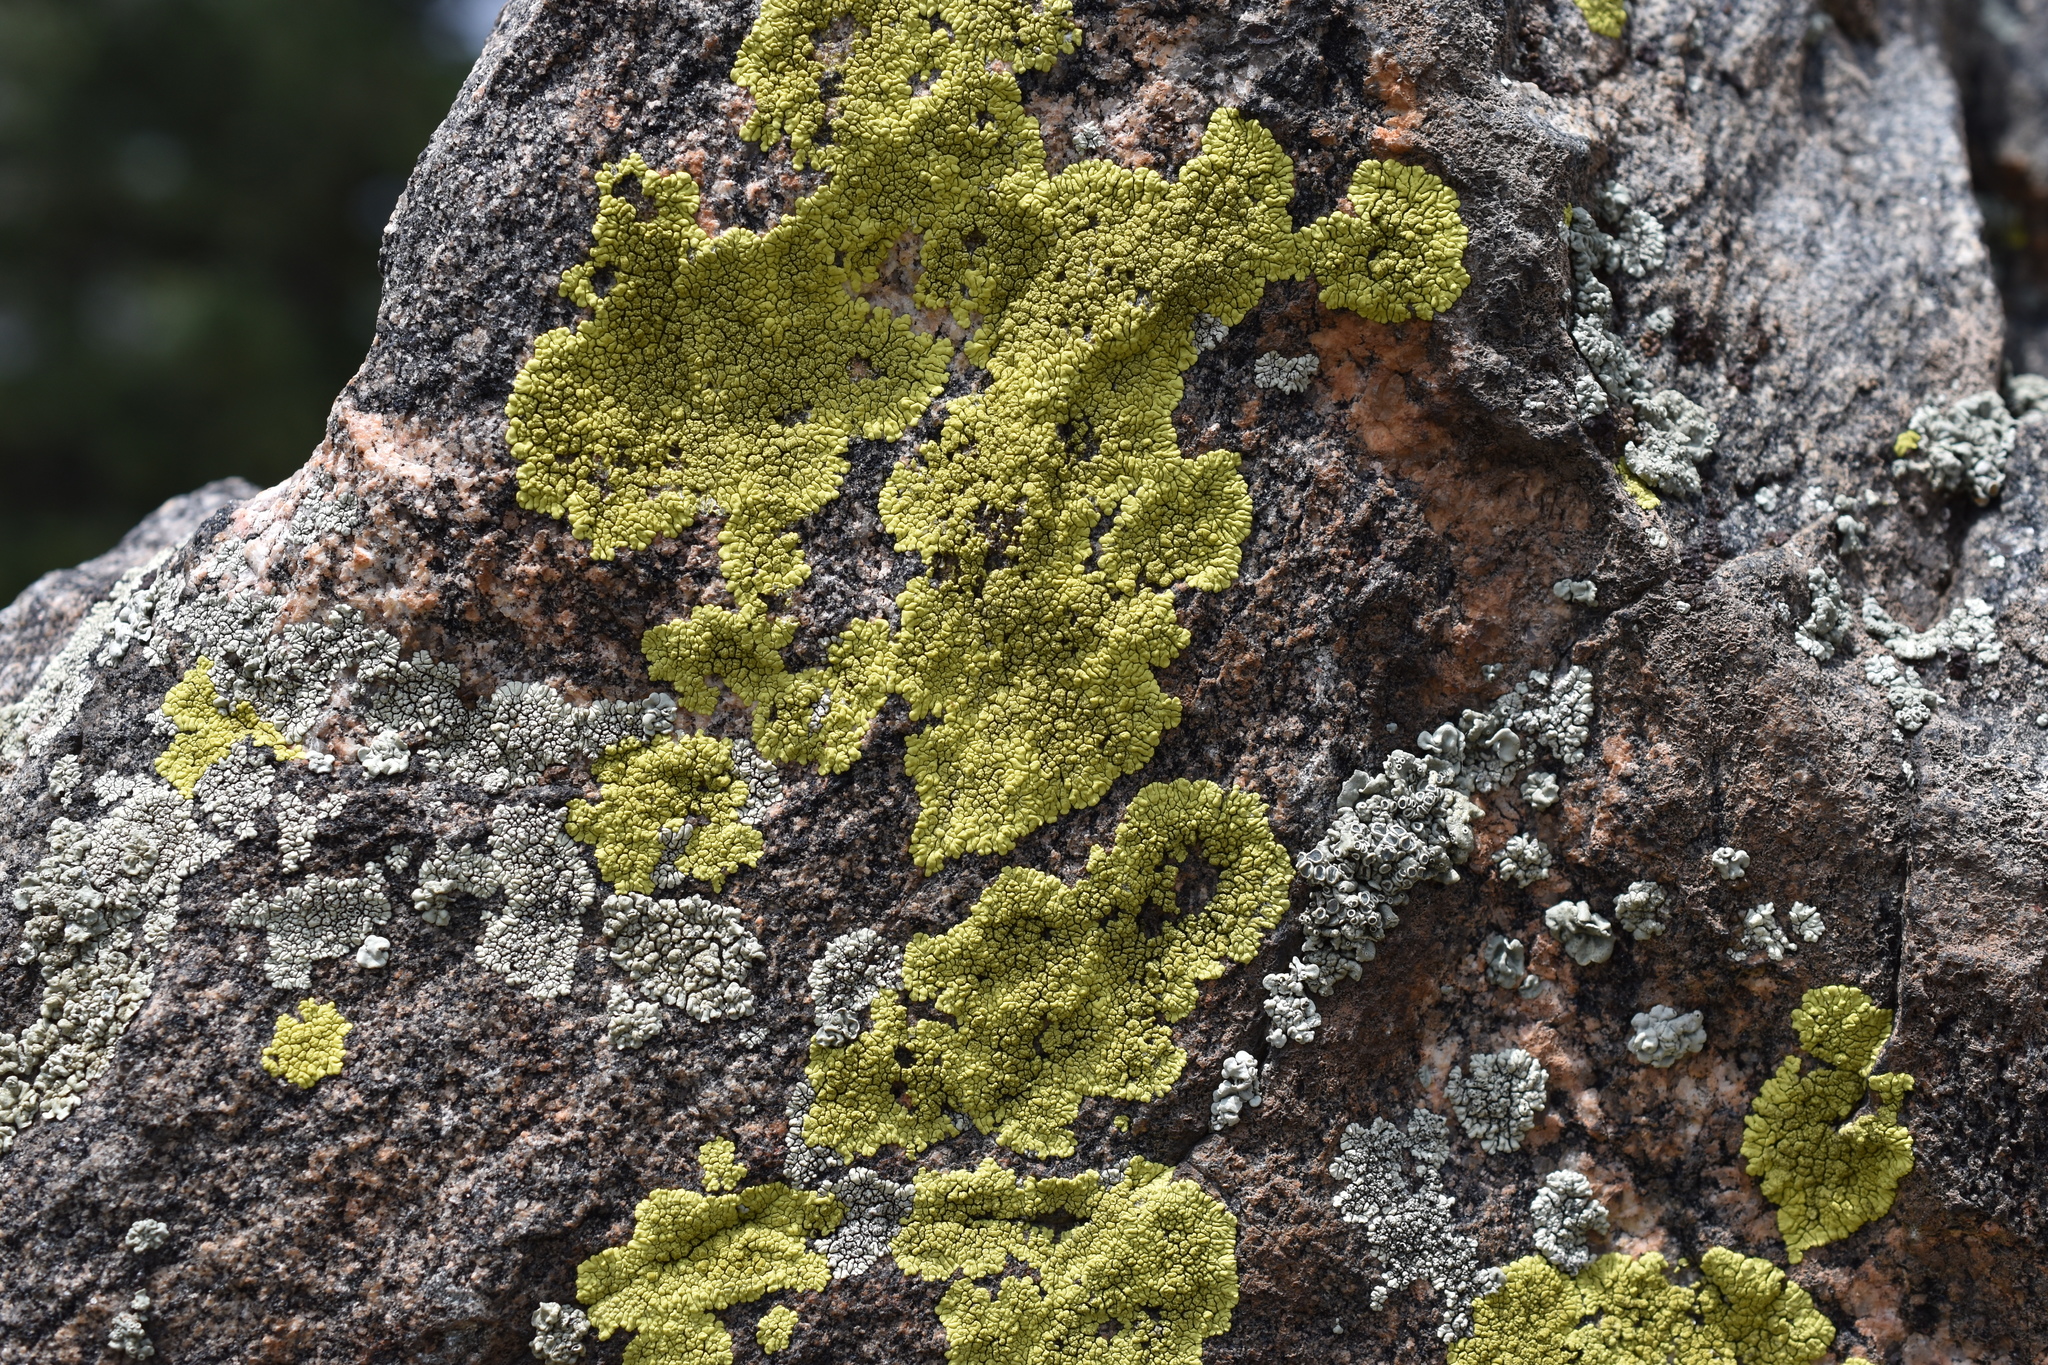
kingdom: Fungi
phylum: Ascomycota
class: Lecanoromycetes
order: Acarosporales
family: Acarosporaceae
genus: Pleopsidium
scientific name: Pleopsidium oxytonum
